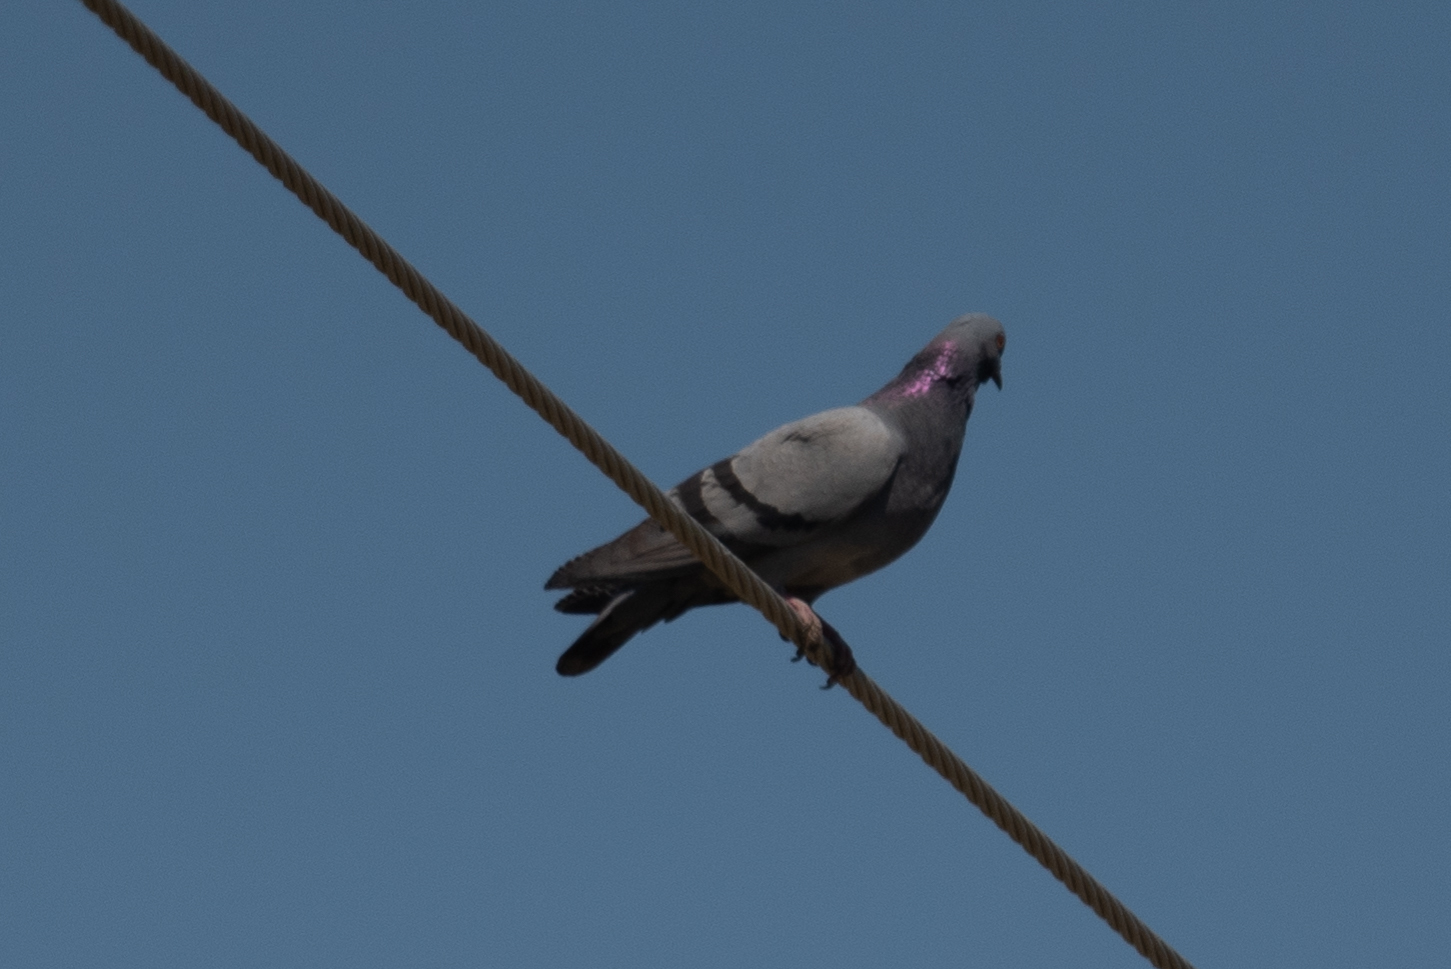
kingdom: Animalia
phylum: Chordata
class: Aves
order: Columbiformes
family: Columbidae
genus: Columba
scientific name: Columba livia
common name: Rock pigeon
